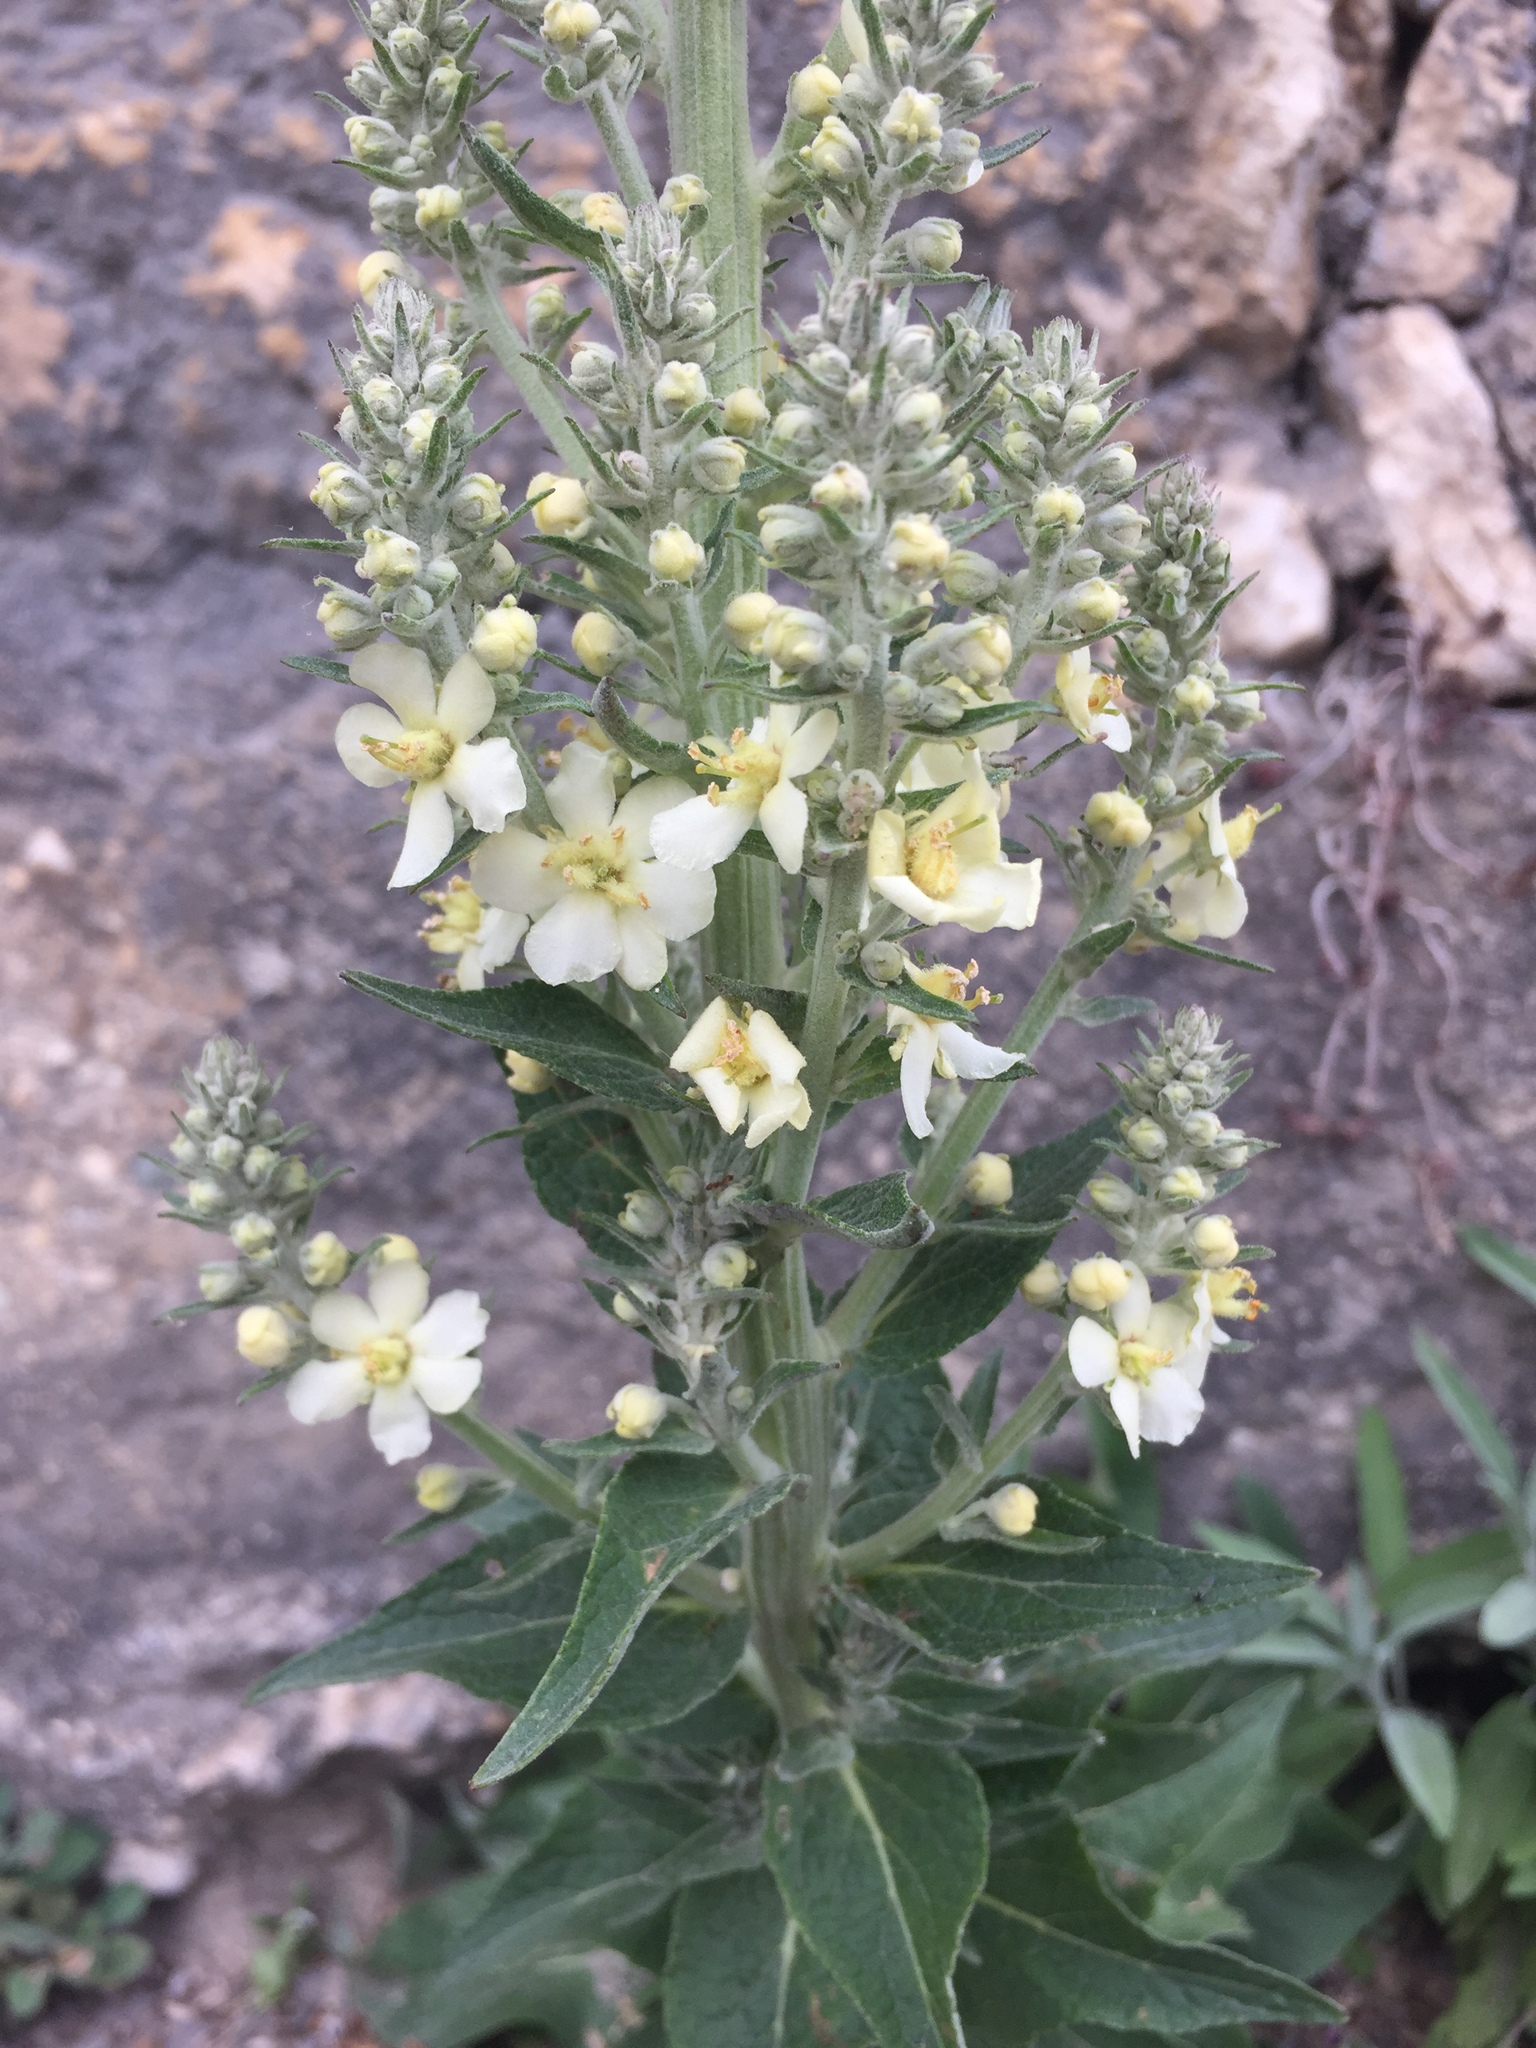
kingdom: Plantae
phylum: Tracheophyta
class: Magnoliopsida
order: Lamiales
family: Scrophulariaceae
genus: Verbascum
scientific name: Verbascum lychnitis
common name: White mullein
